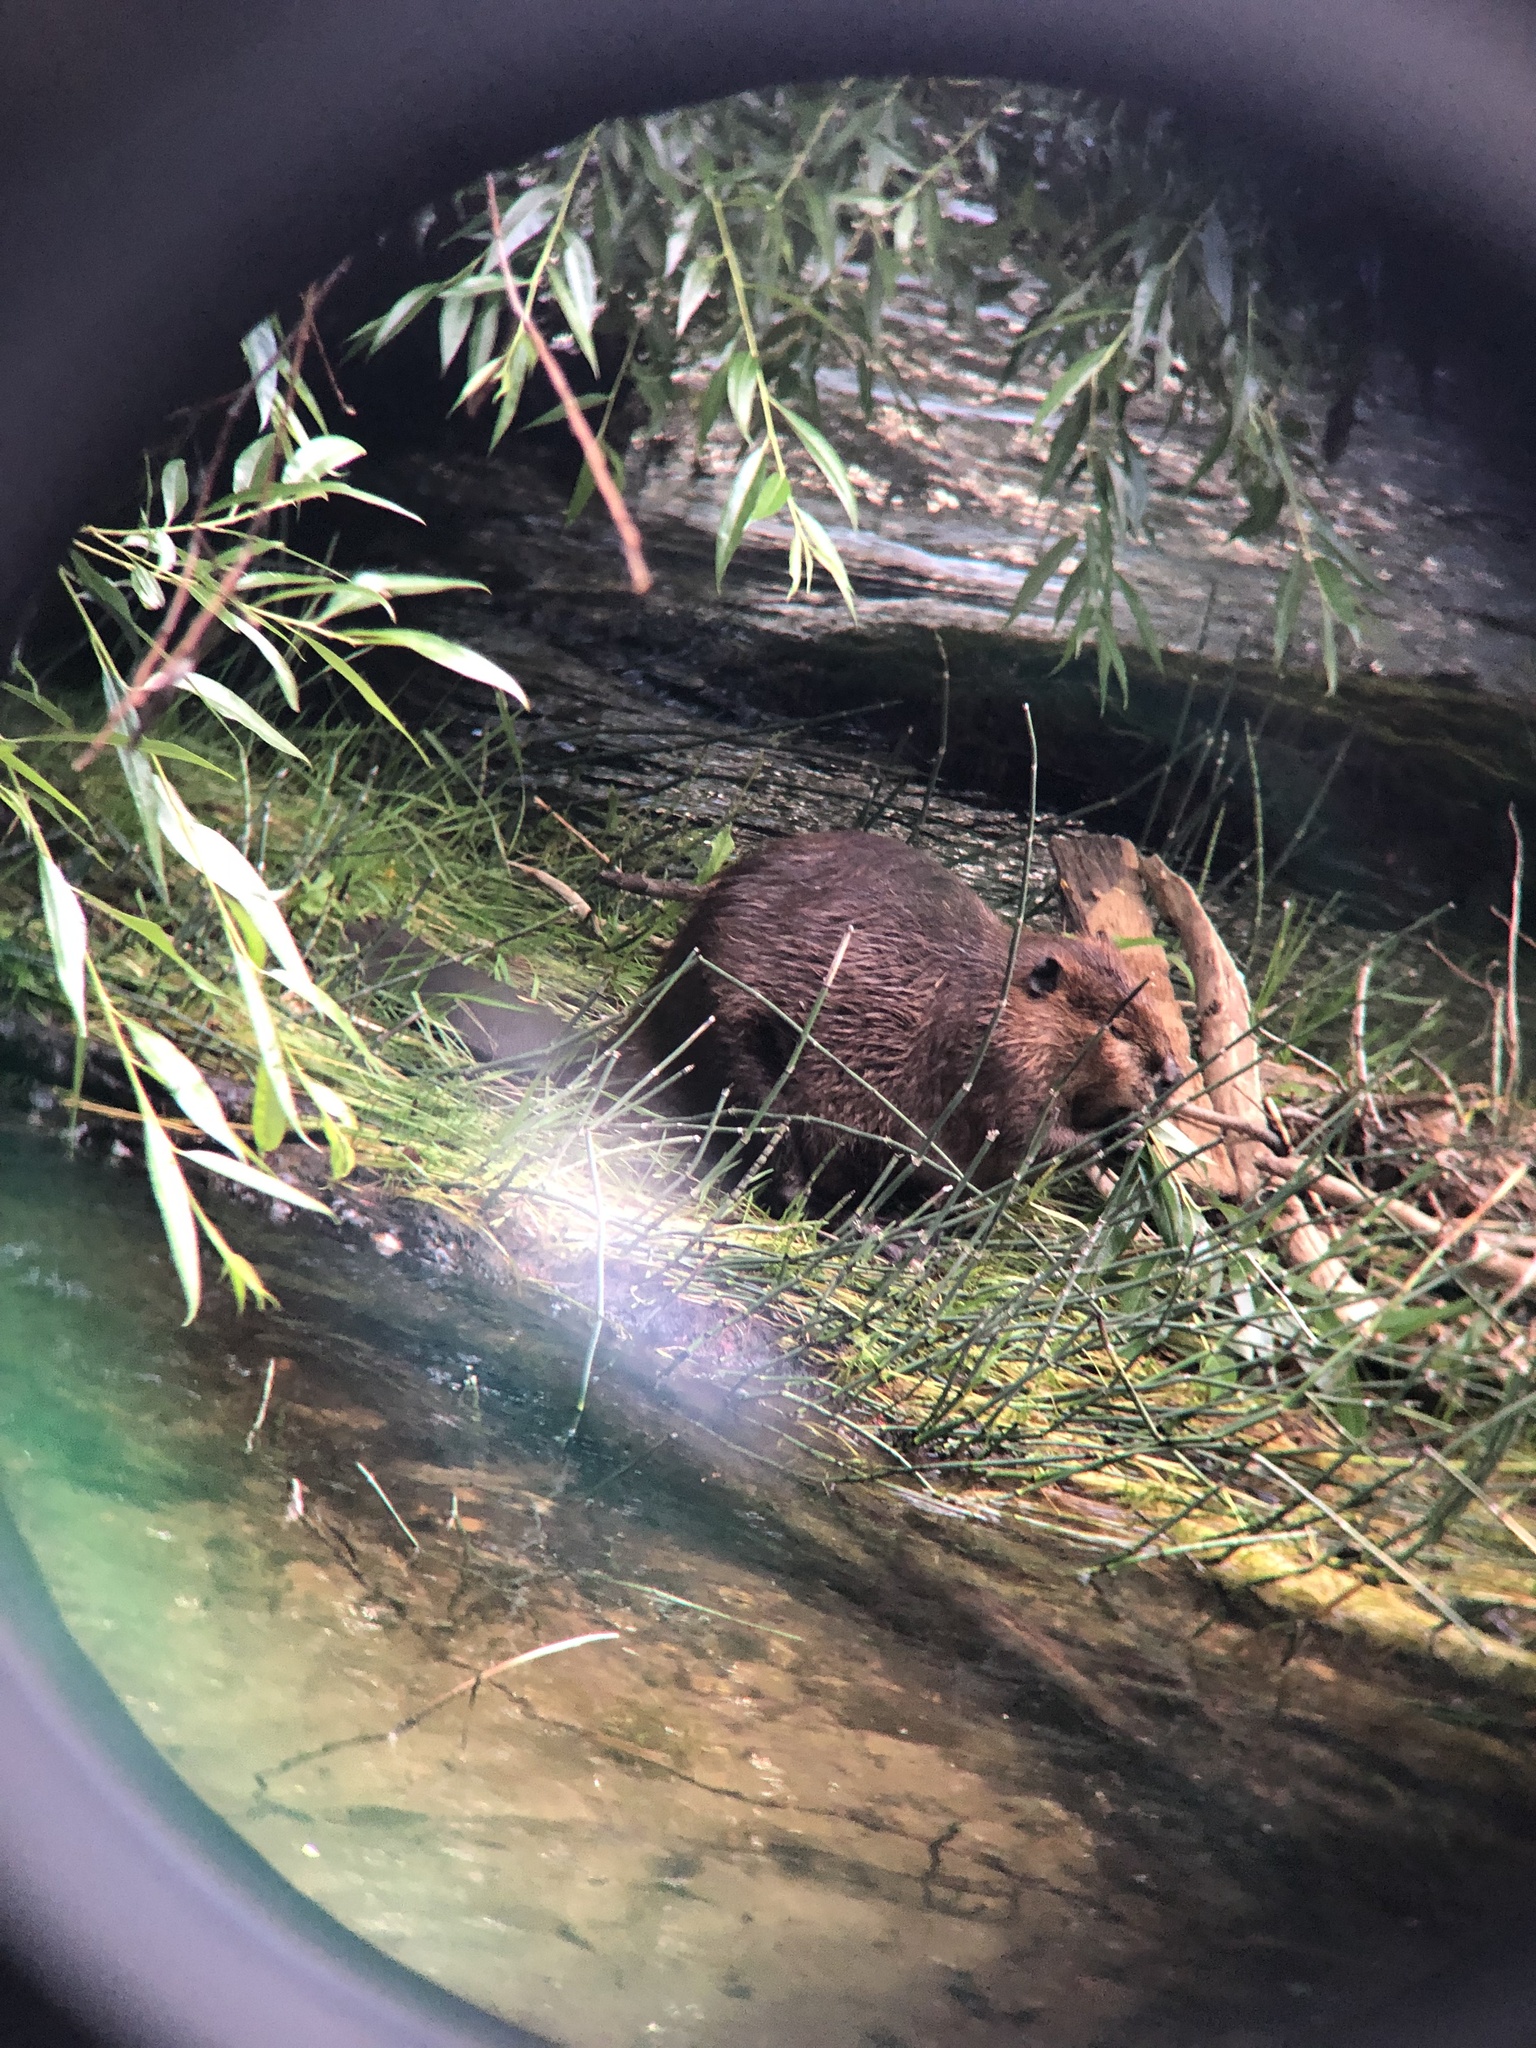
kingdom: Animalia
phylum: Chordata
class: Mammalia
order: Rodentia
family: Castoridae
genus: Castor
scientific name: Castor canadensis
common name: American beaver
